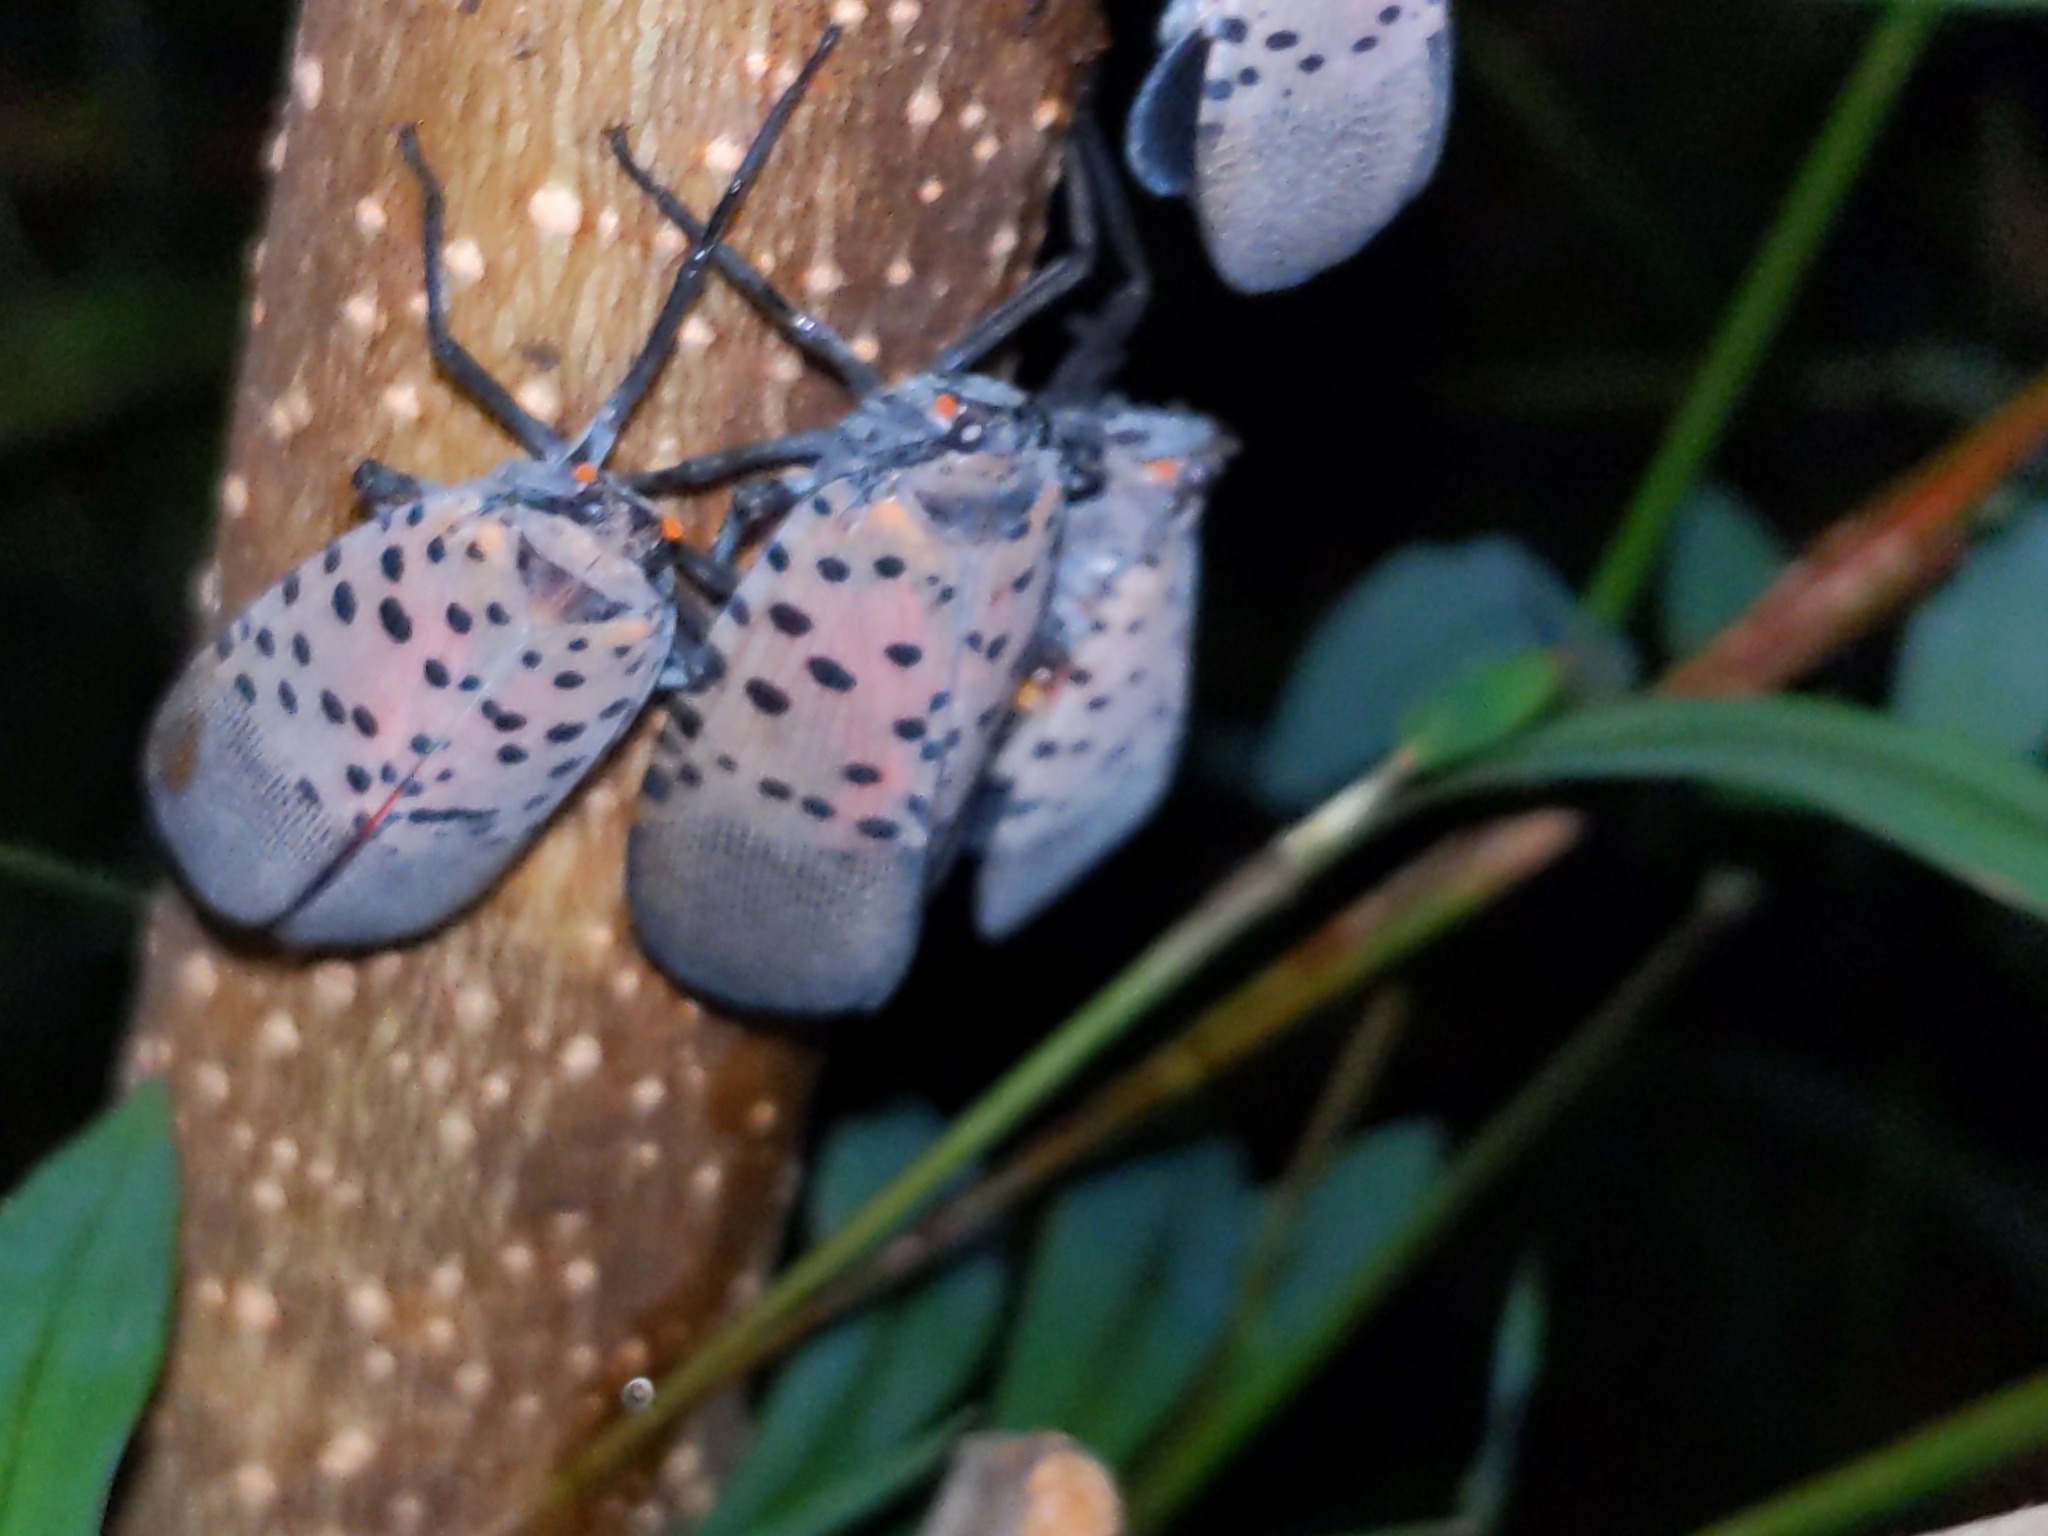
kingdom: Animalia
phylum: Arthropoda
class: Insecta
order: Hemiptera
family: Fulgoridae
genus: Lycorma
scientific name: Lycorma delicatula
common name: Spotted lanternfly
